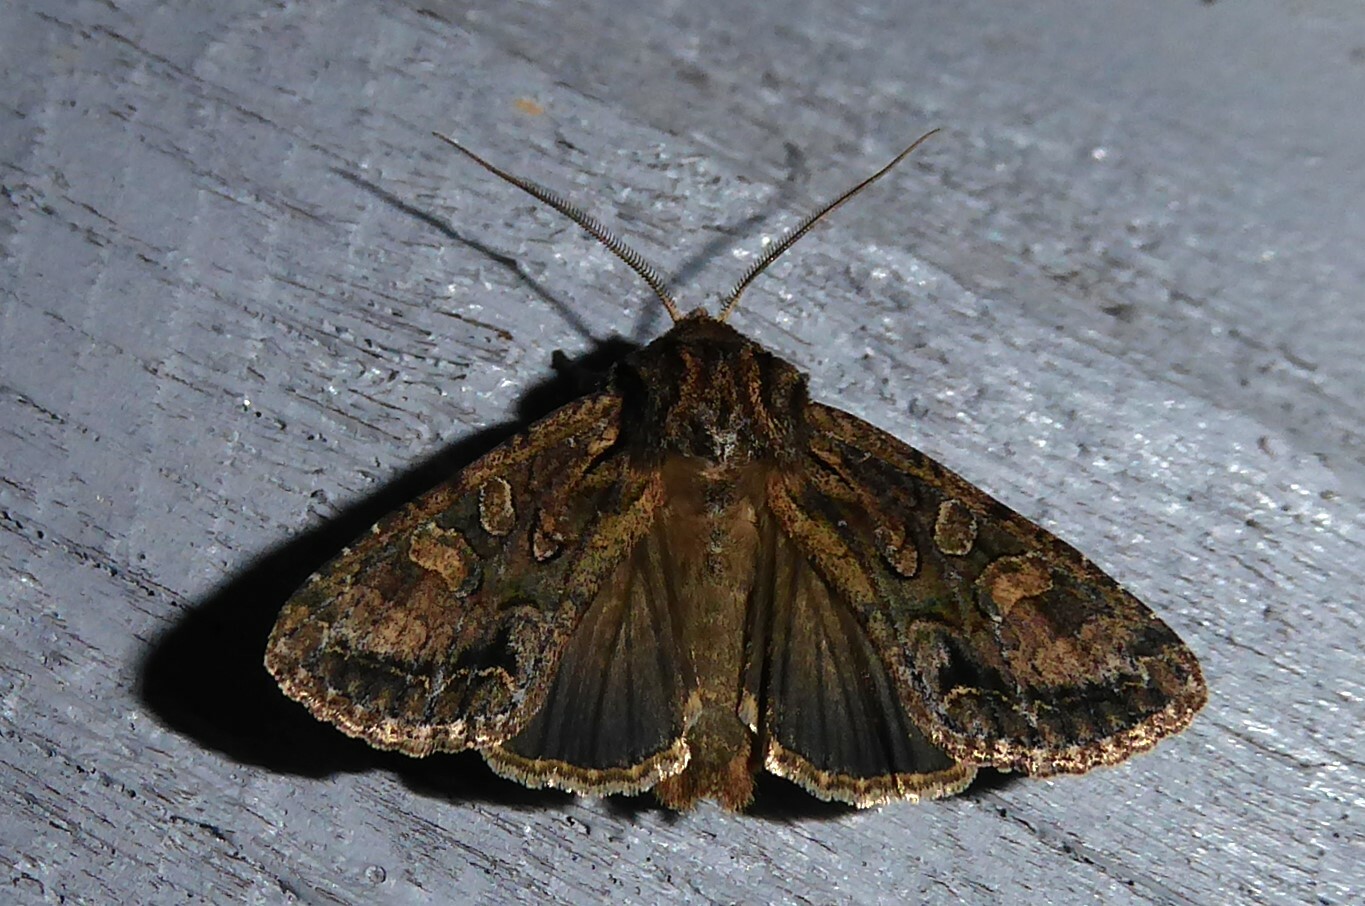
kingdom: Animalia
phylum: Arthropoda
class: Insecta
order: Lepidoptera
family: Noctuidae
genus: Ichneutica
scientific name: Ichneutica mutans
